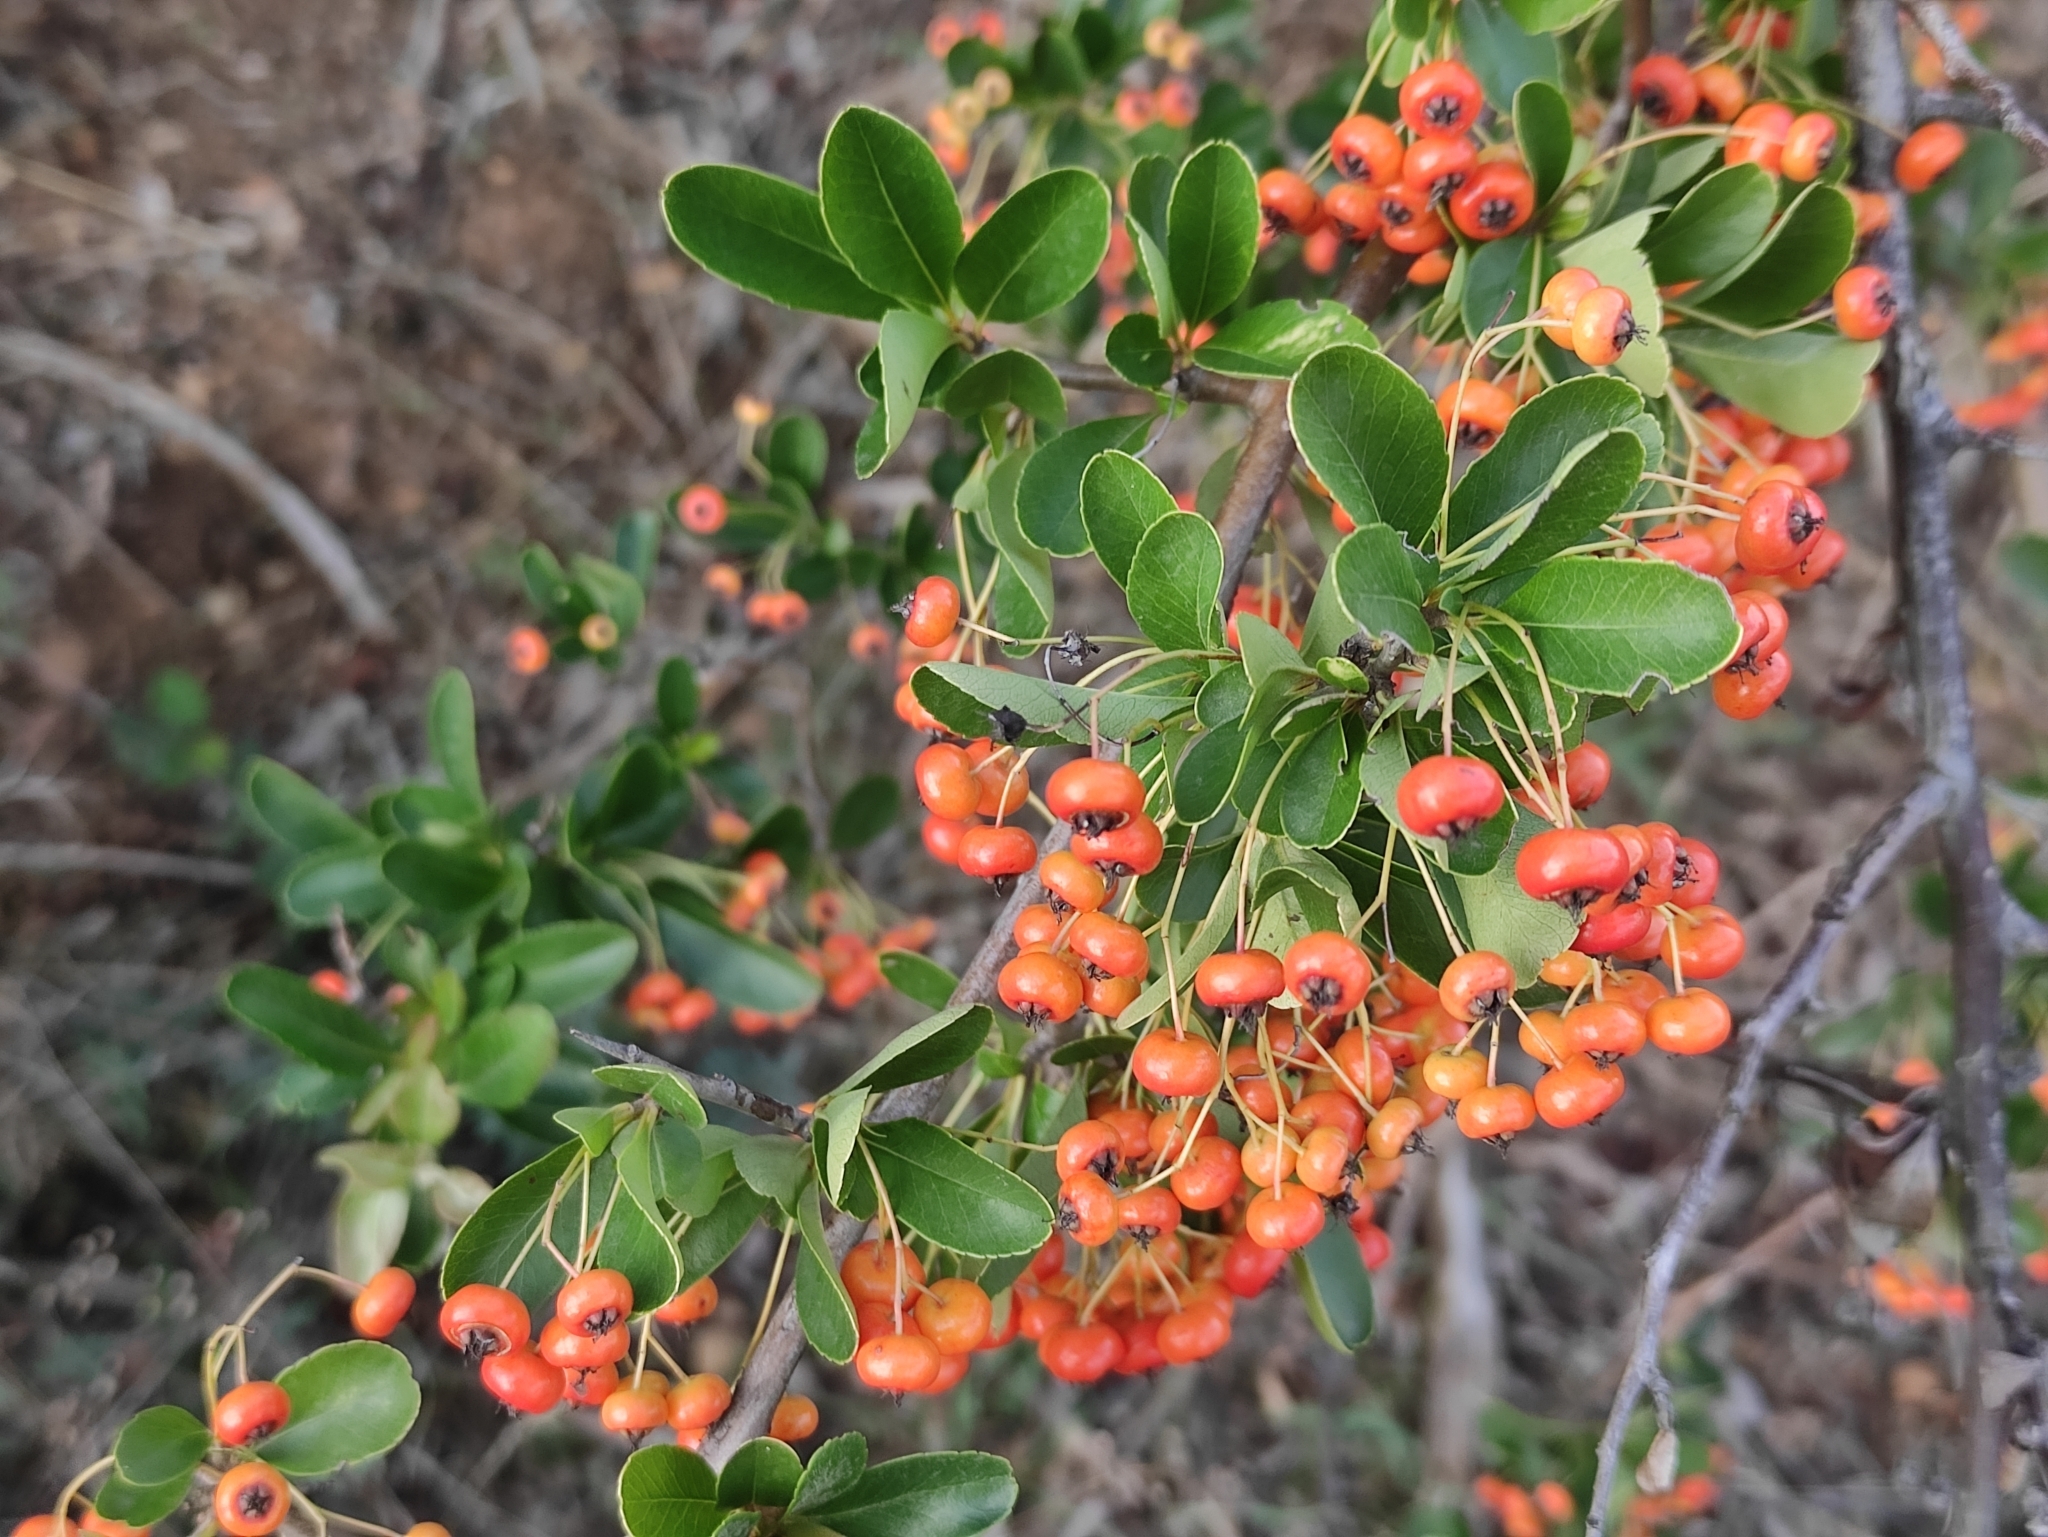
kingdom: Plantae
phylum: Tracheophyta
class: Magnoliopsida
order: Rosales
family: Rosaceae
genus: Pyracantha
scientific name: Pyracantha coccinea
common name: Firethorn
